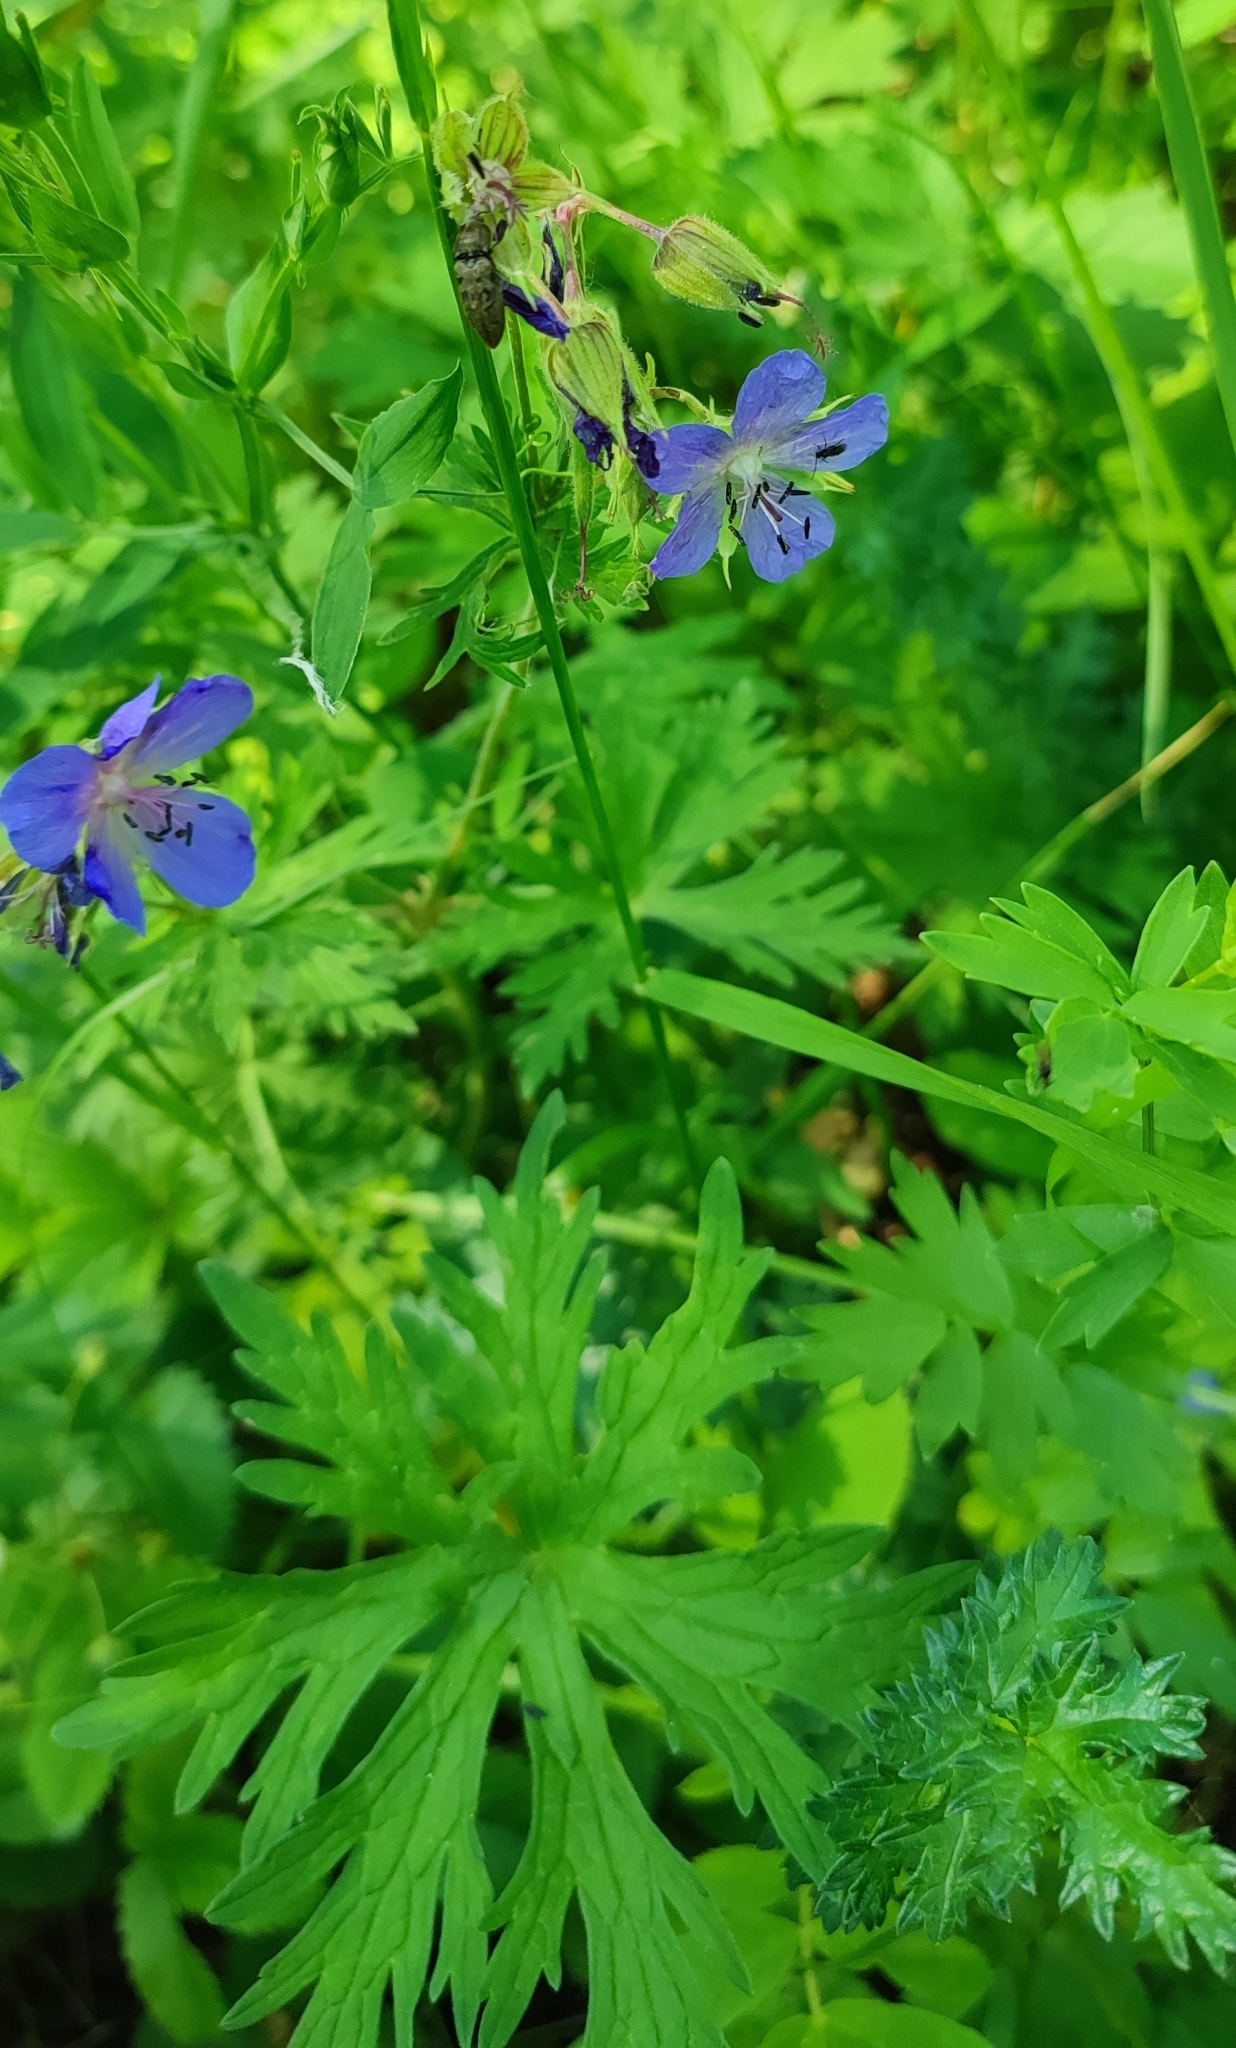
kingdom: Plantae
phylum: Tracheophyta
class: Magnoliopsida
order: Geraniales
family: Geraniaceae
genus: Geranium
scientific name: Geranium pratense
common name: Meadow crane's-bill
